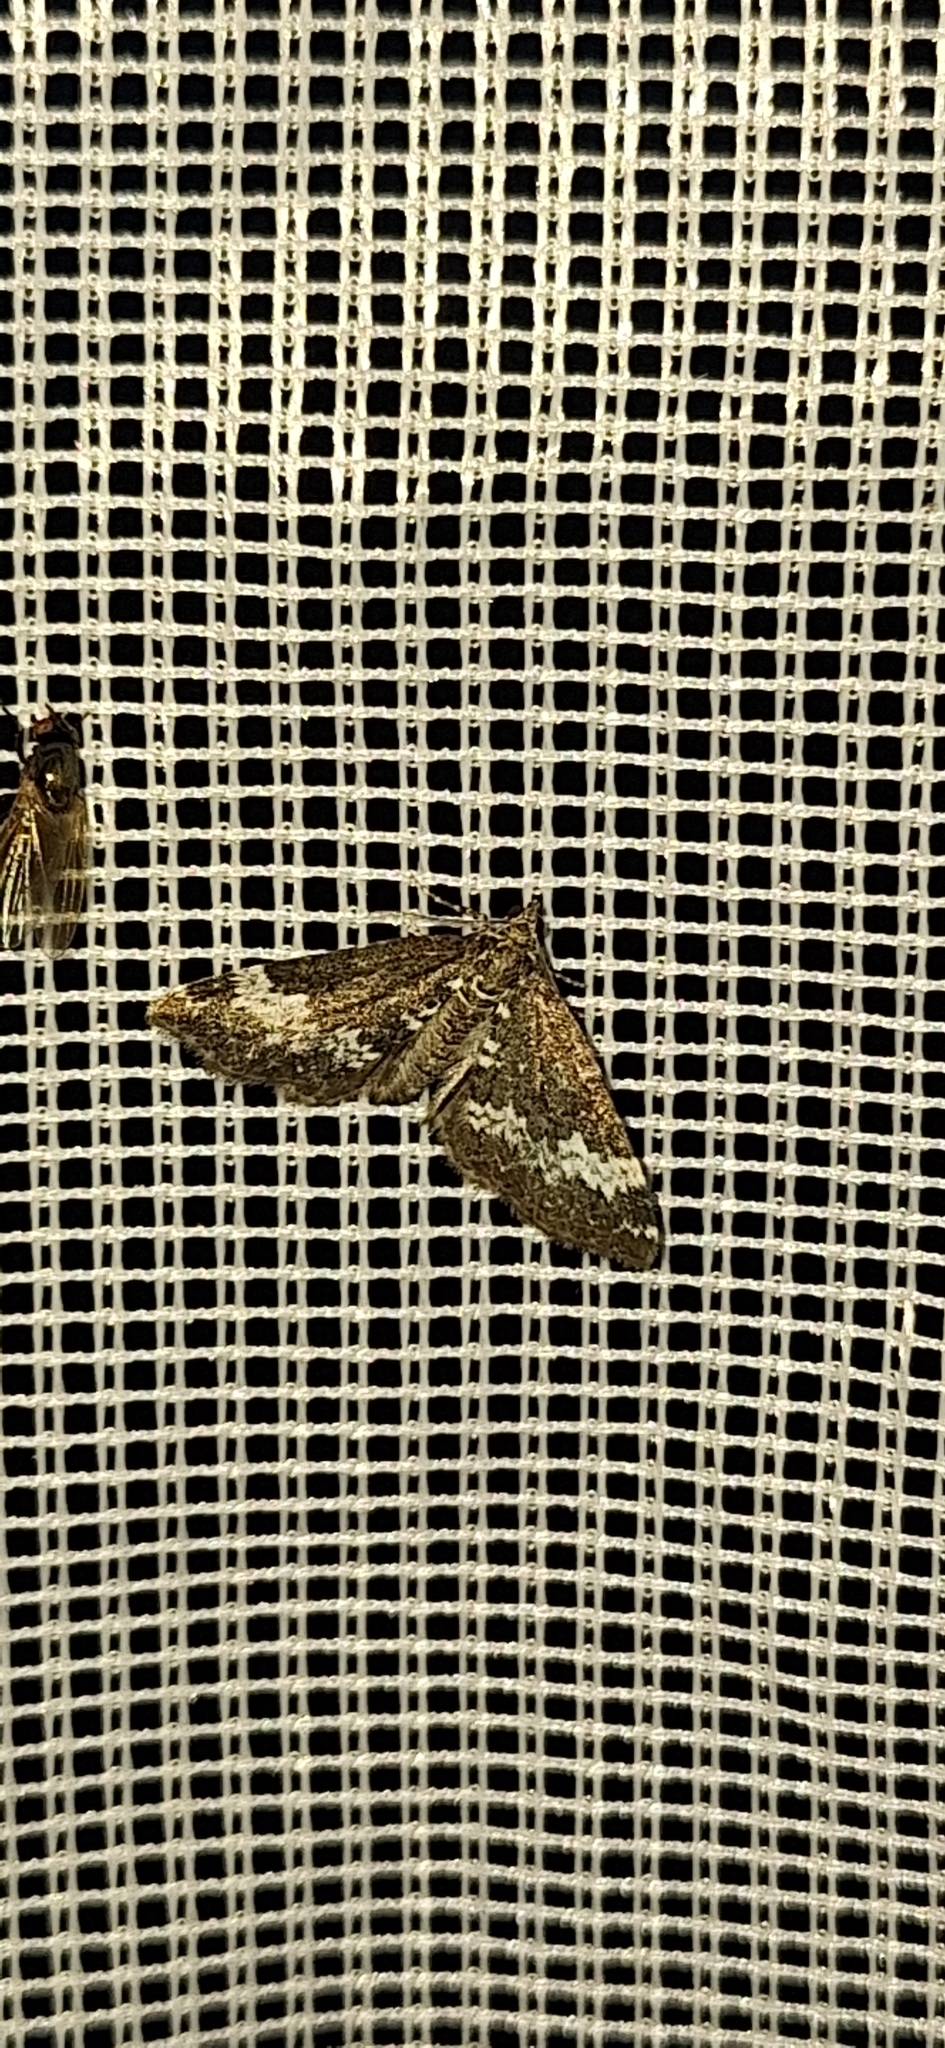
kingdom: Animalia
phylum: Arthropoda
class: Insecta
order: Lepidoptera
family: Geometridae
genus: Perizoma
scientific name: Perizoma alchemillata
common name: Small rivulet
